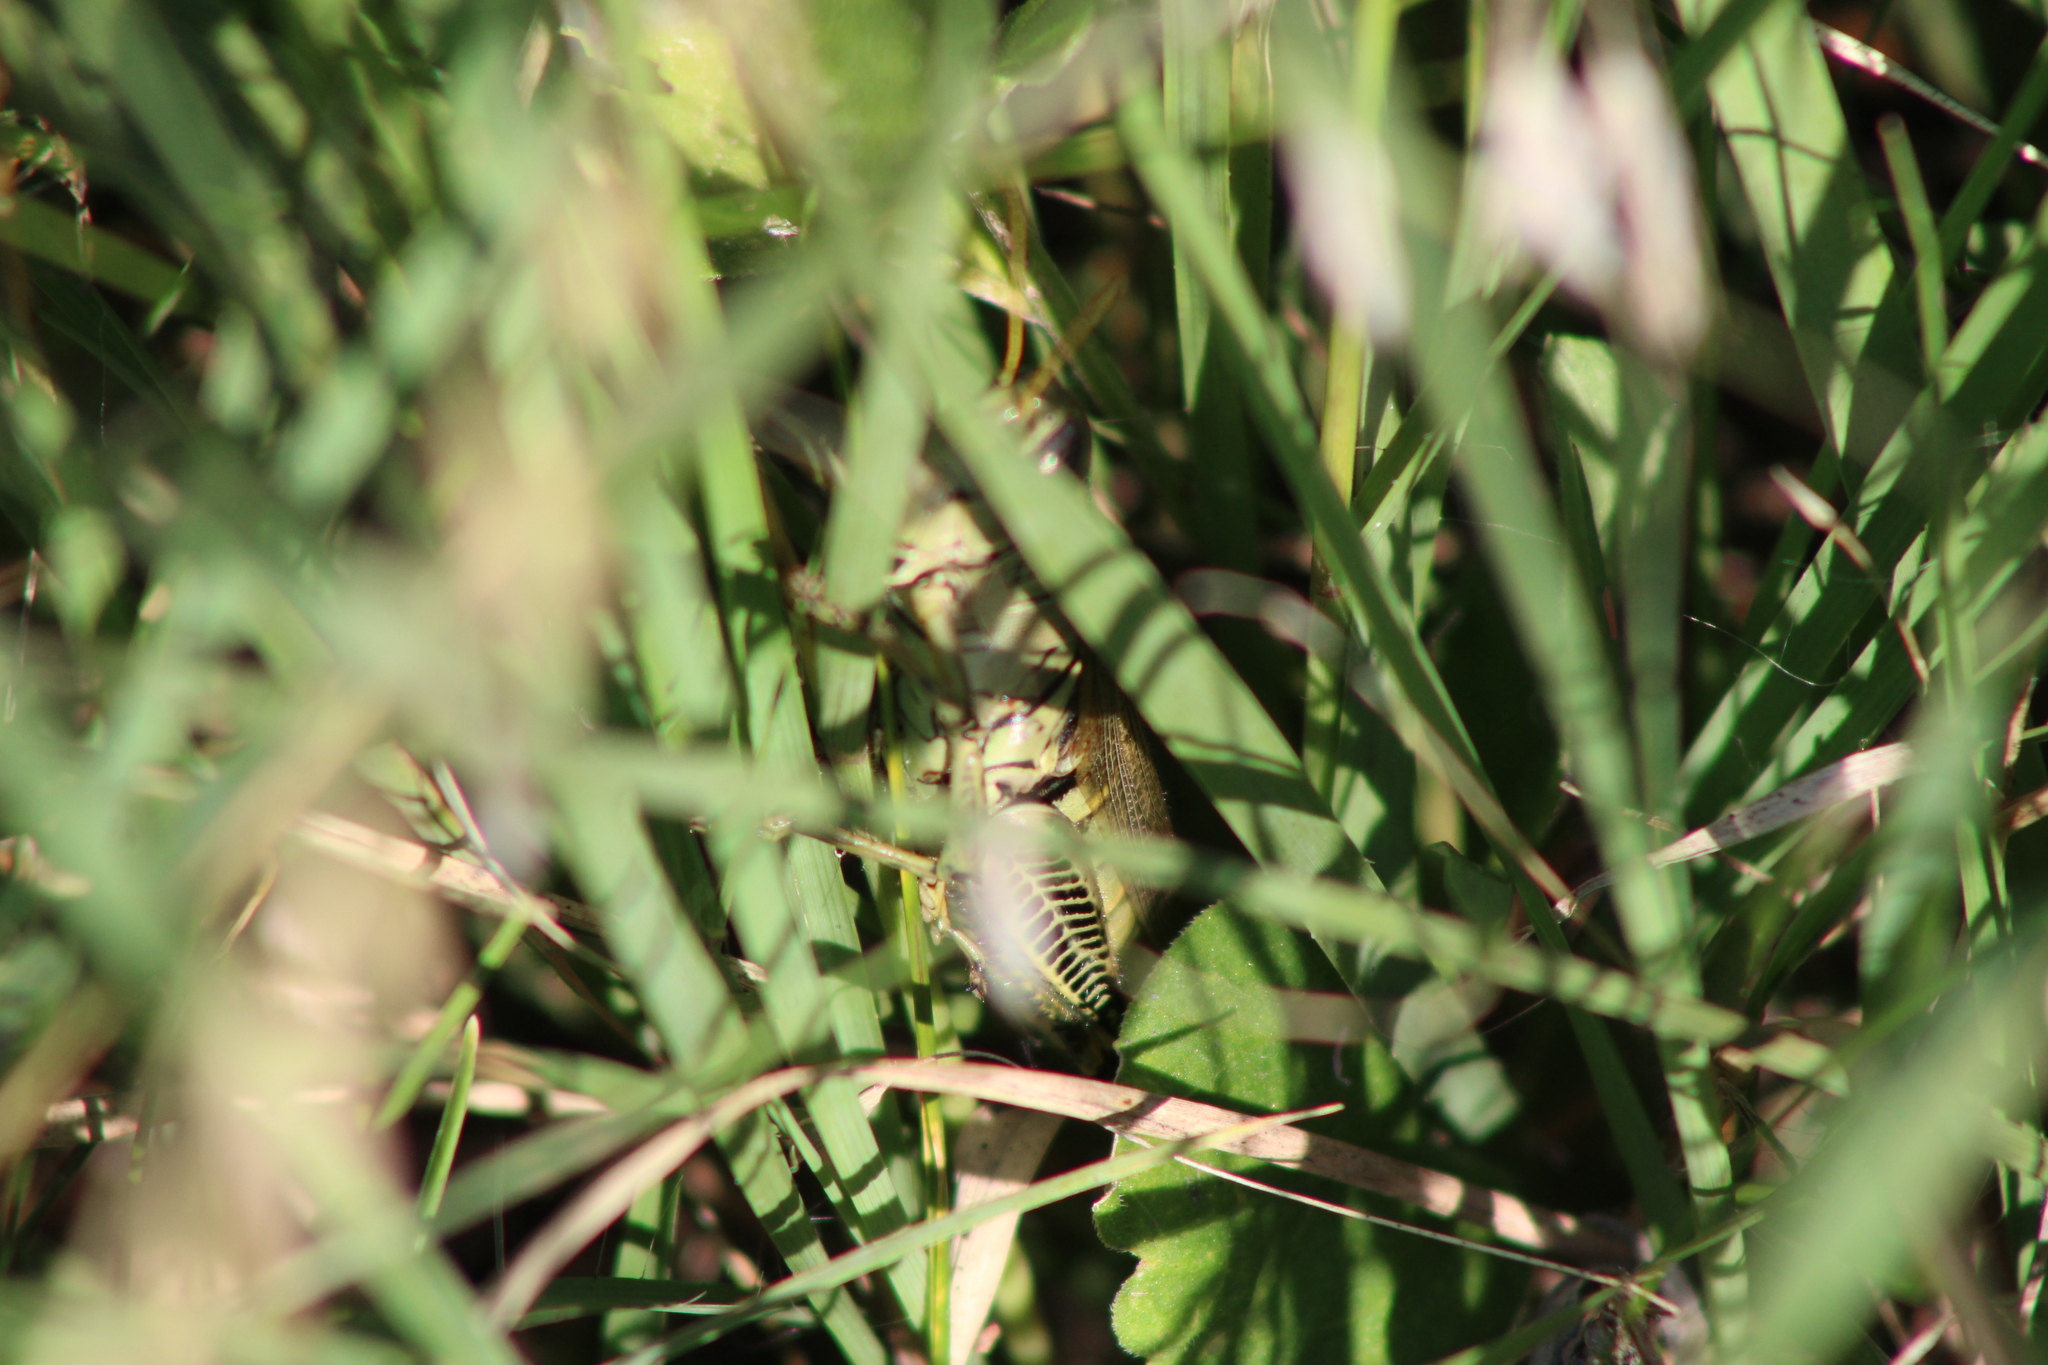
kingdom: Animalia
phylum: Arthropoda
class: Insecta
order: Orthoptera
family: Acrididae
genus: Melanoplus
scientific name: Melanoplus differentialis
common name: Differential grasshopper
